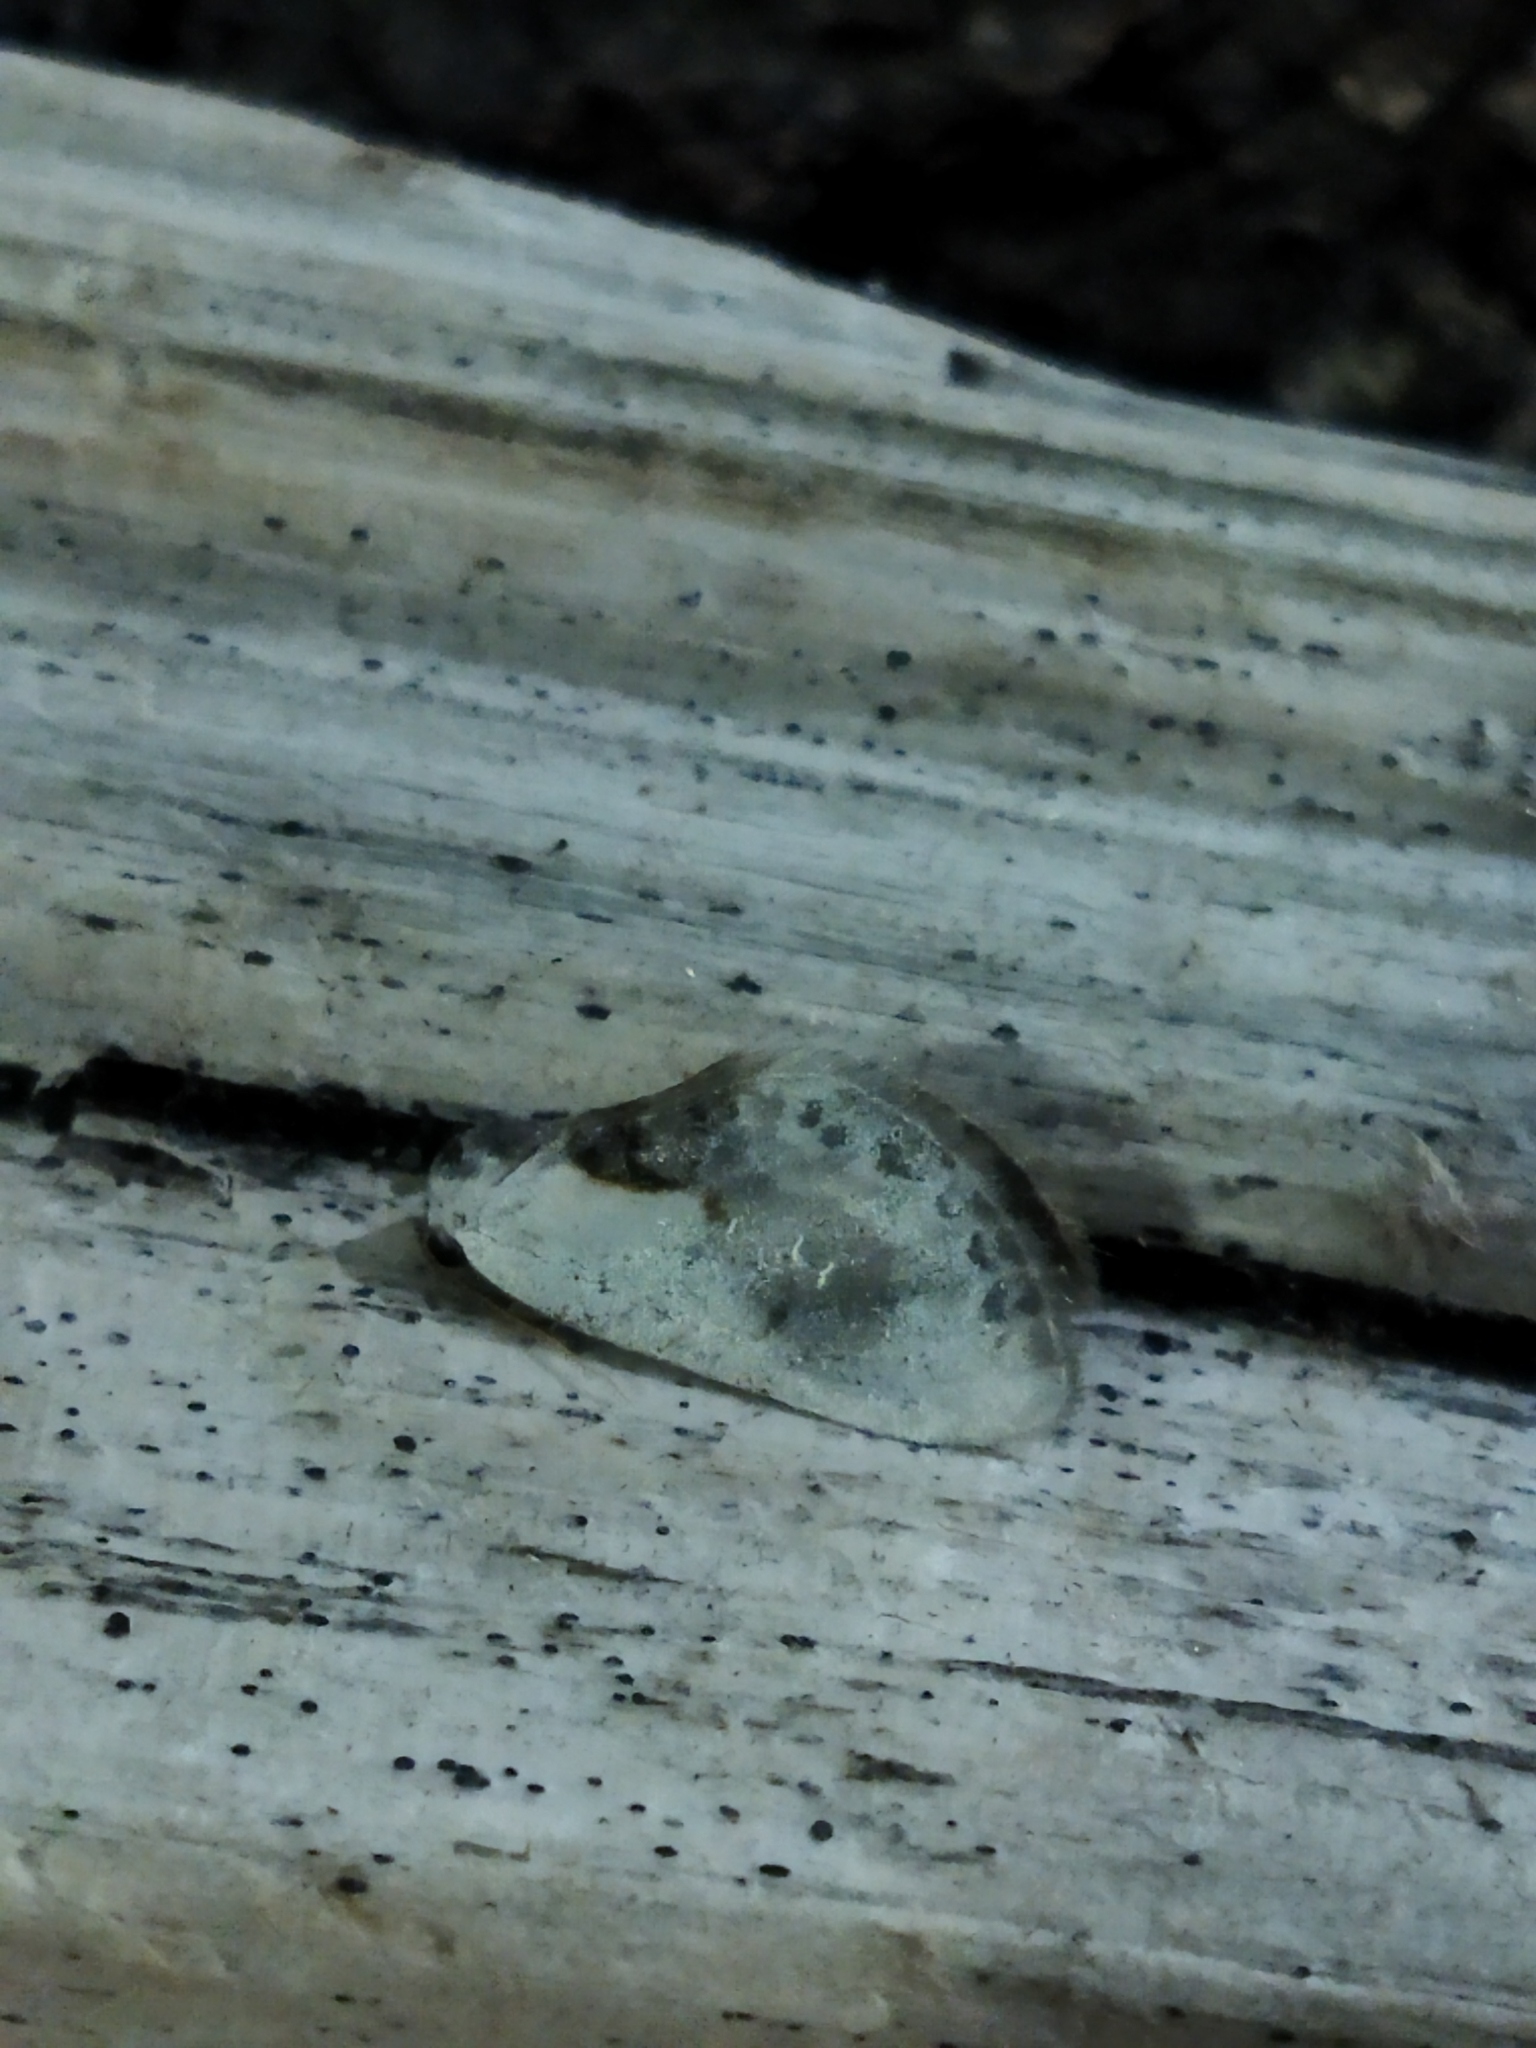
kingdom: Animalia
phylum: Arthropoda
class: Insecta
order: Lepidoptera
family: Drepanidae
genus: Cilix
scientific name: Cilix glaucata
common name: Chinese character
